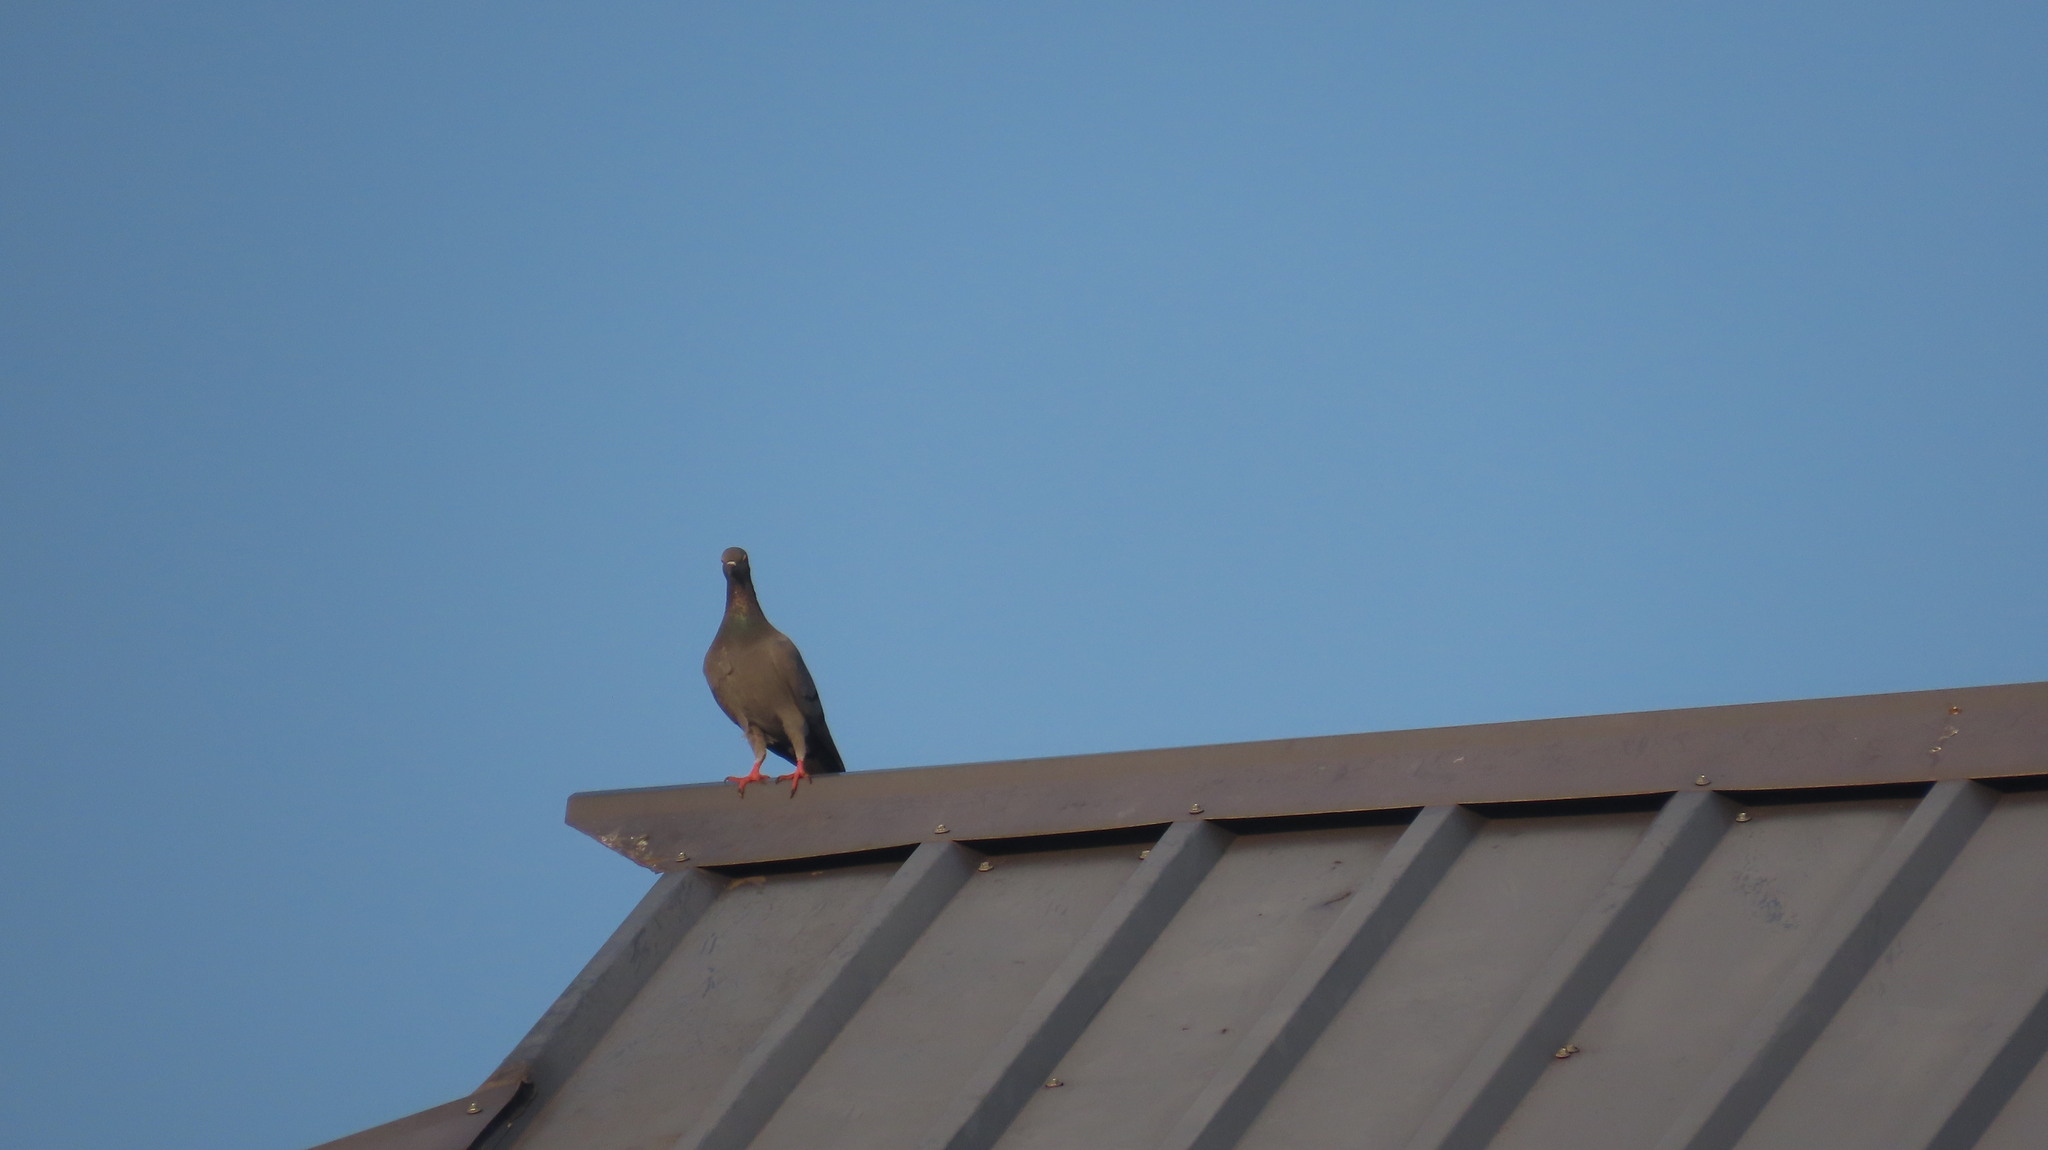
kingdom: Animalia
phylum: Chordata
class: Aves
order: Columbiformes
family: Columbidae
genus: Columba
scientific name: Columba livia
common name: Rock pigeon
